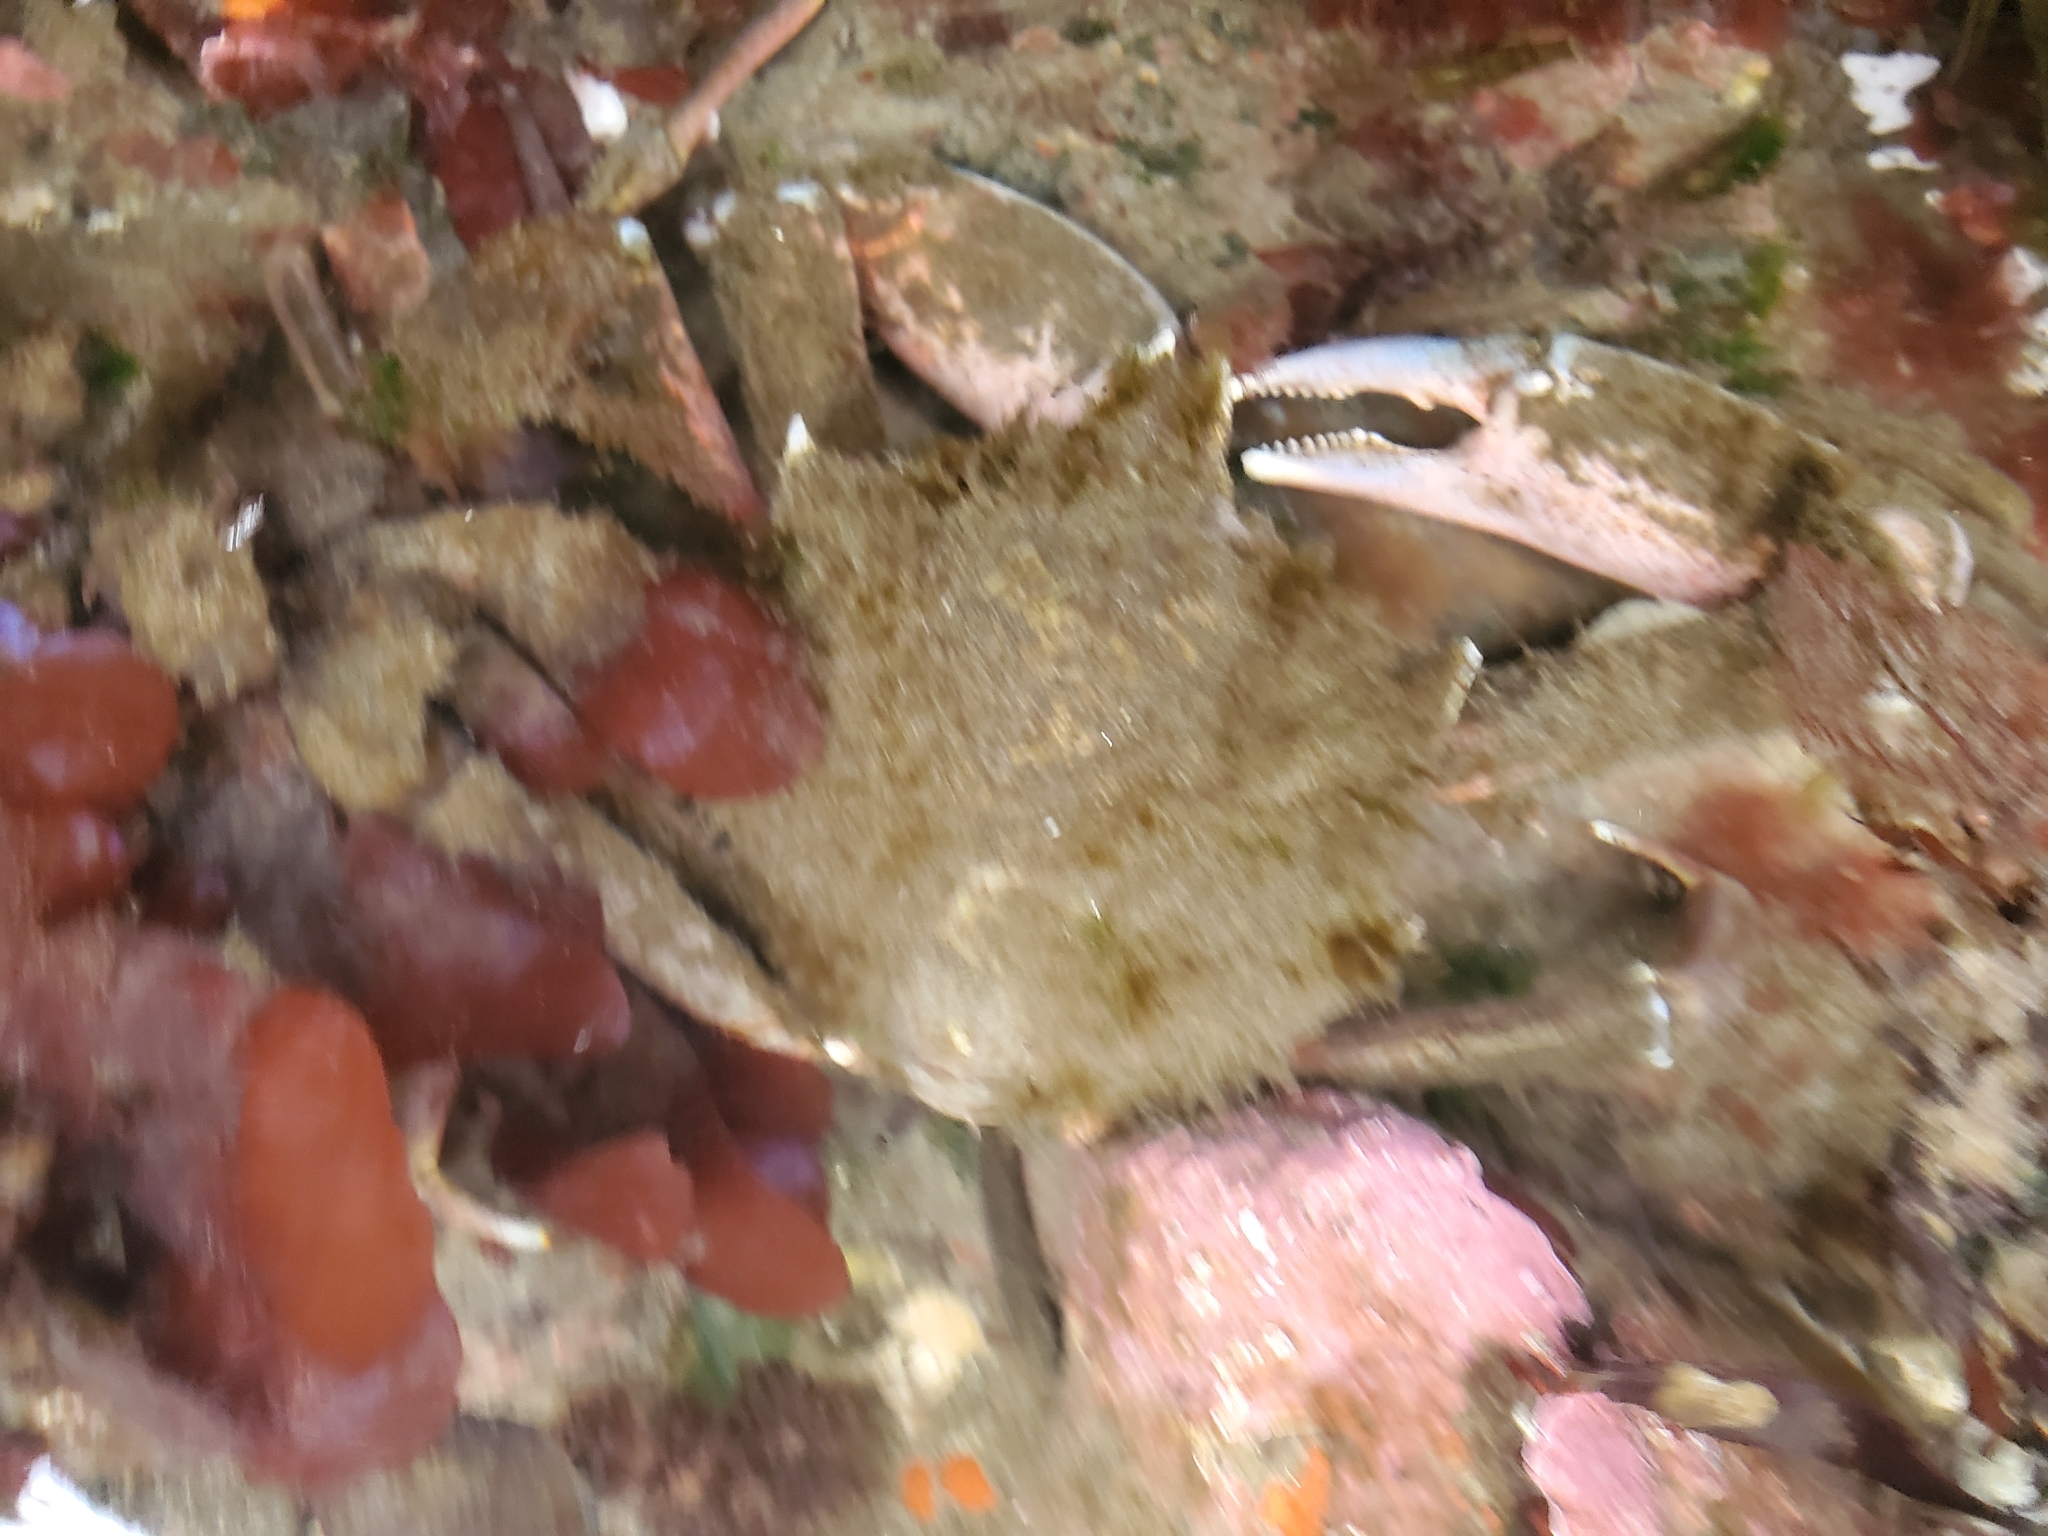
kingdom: Animalia
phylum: Arthropoda
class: Malacostraca
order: Decapoda
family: Epialtidae
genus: Pugettia
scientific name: Pugettia producta
